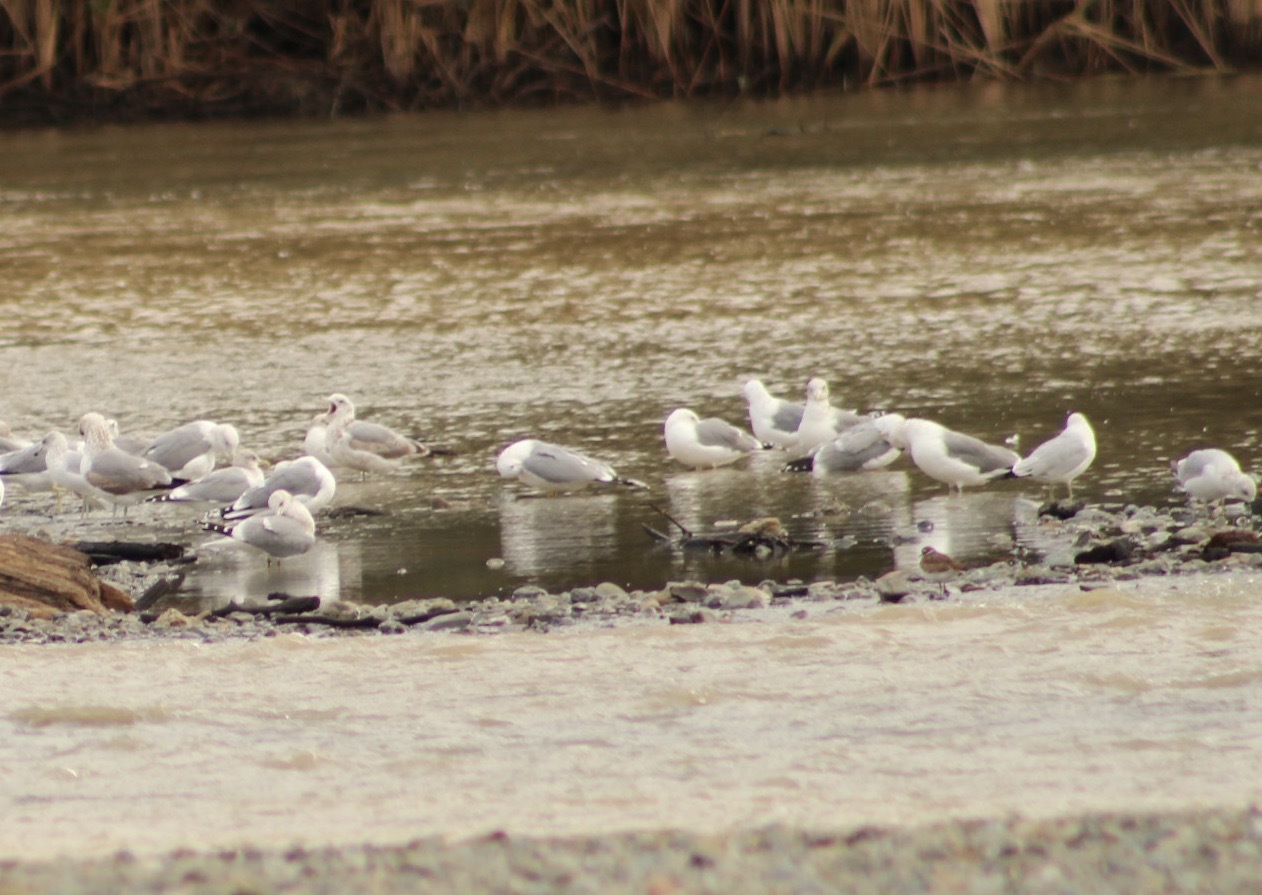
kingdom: Animalia
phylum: Chordata
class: Aves
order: Charadriiformes
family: Laridae
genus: Larus
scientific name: Larus californicus
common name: California gull
